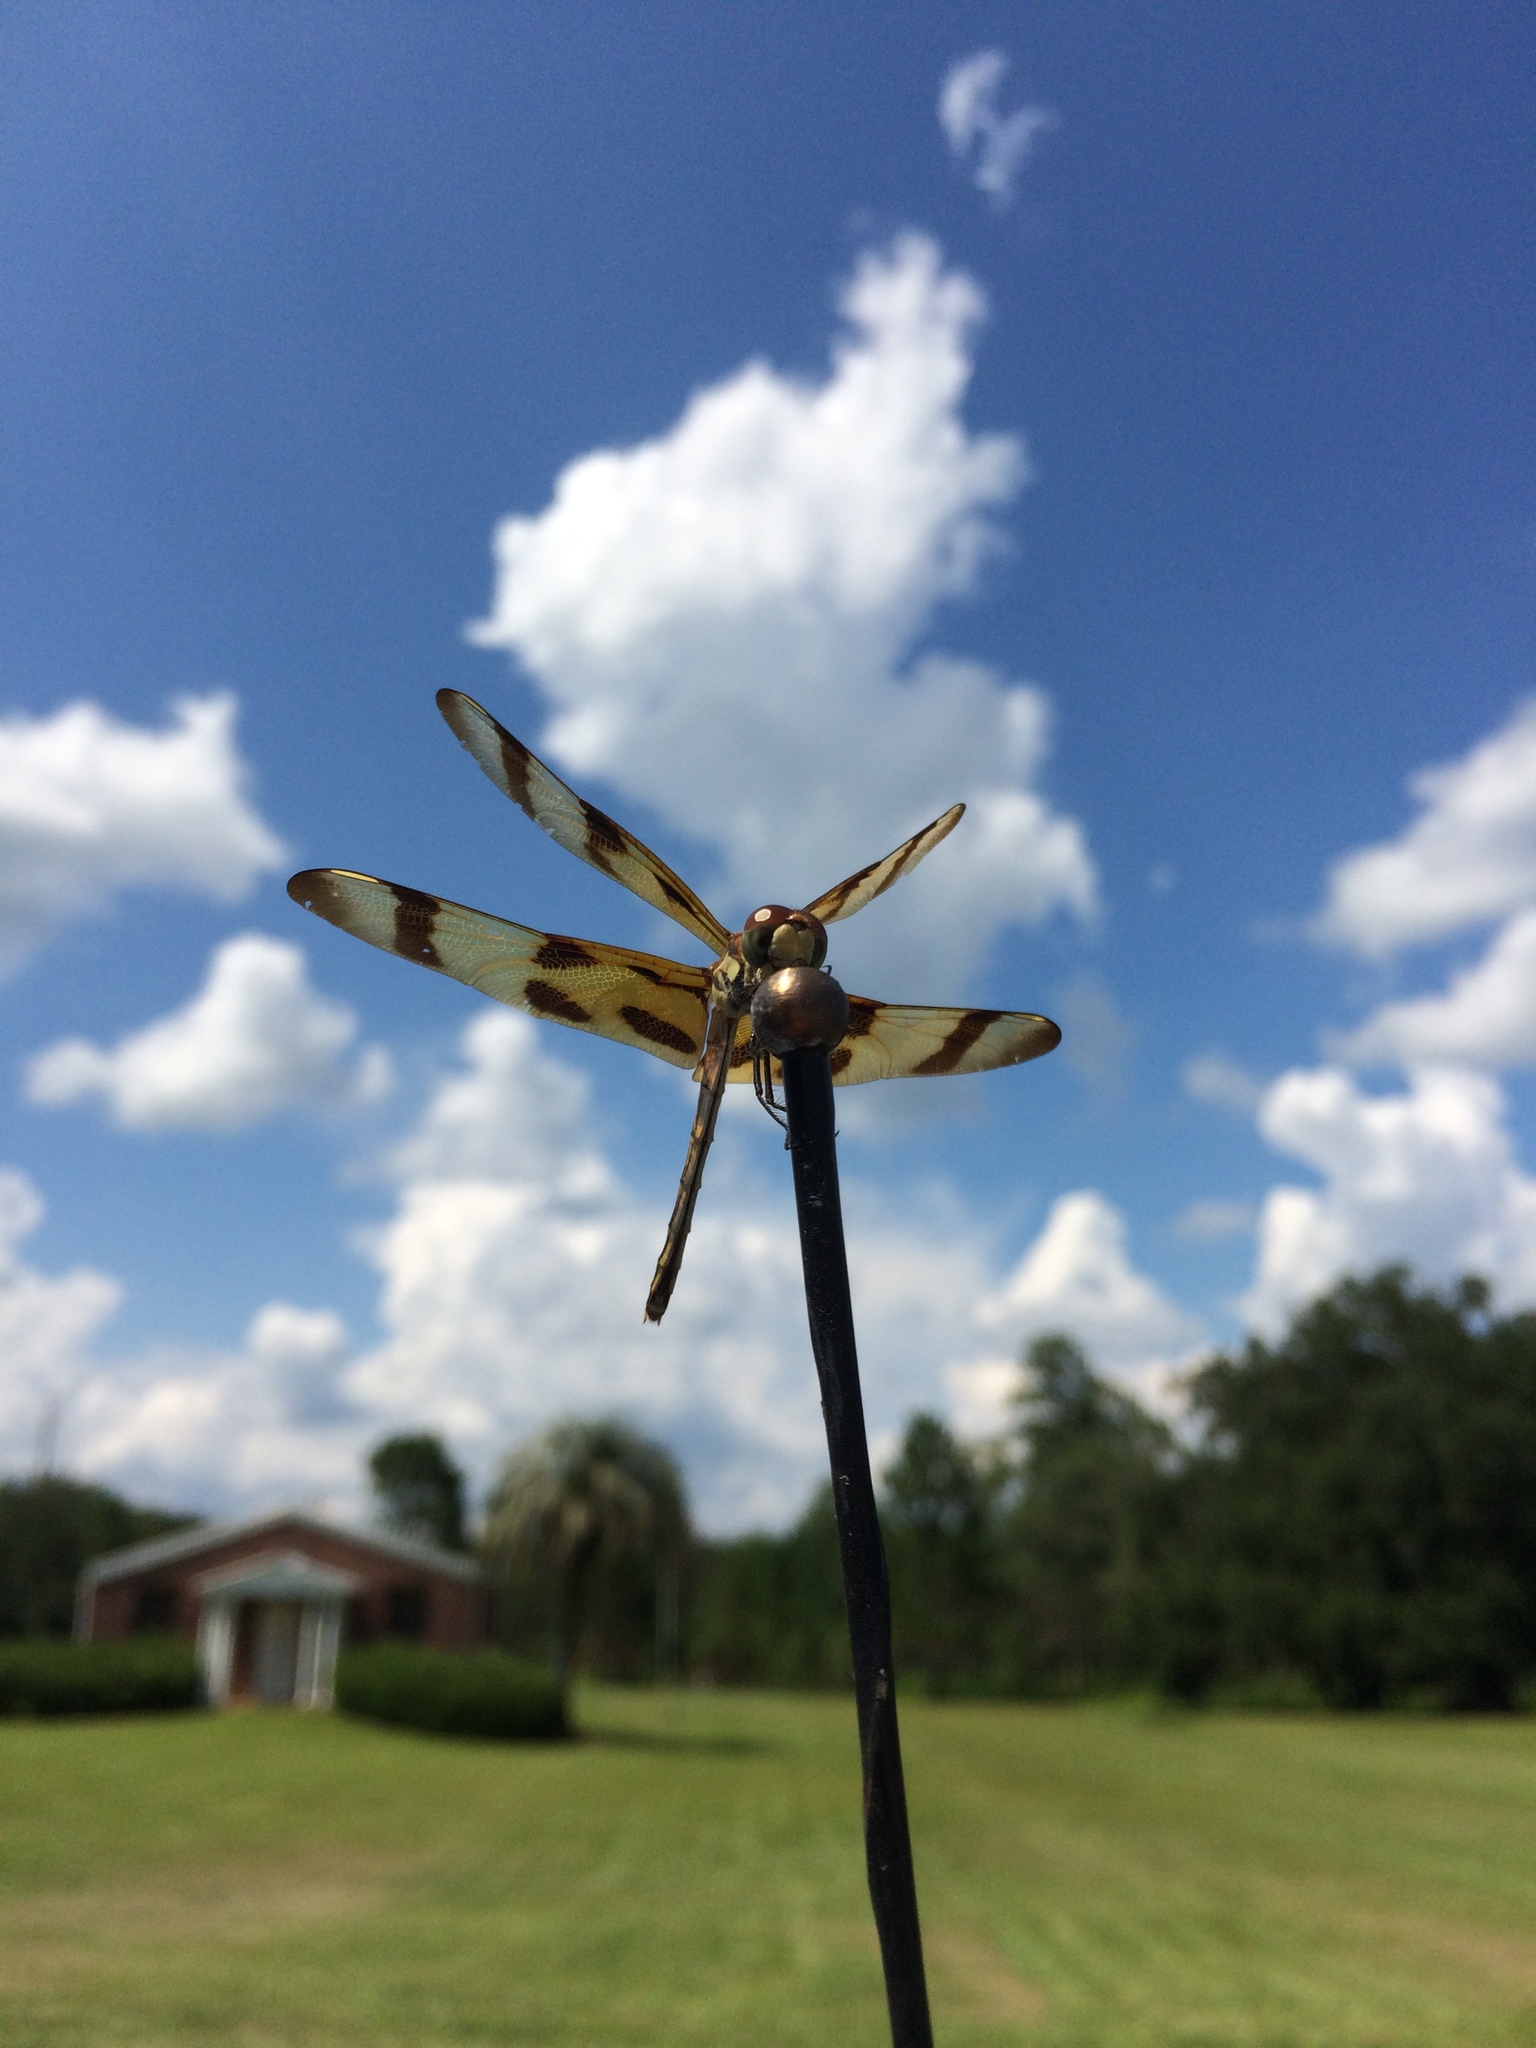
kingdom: Animalia
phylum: Arthropoda
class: Insecta
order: Odonata
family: Libellulidae
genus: Celithemis
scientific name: Celithemis eponina
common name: Halloween pennant
